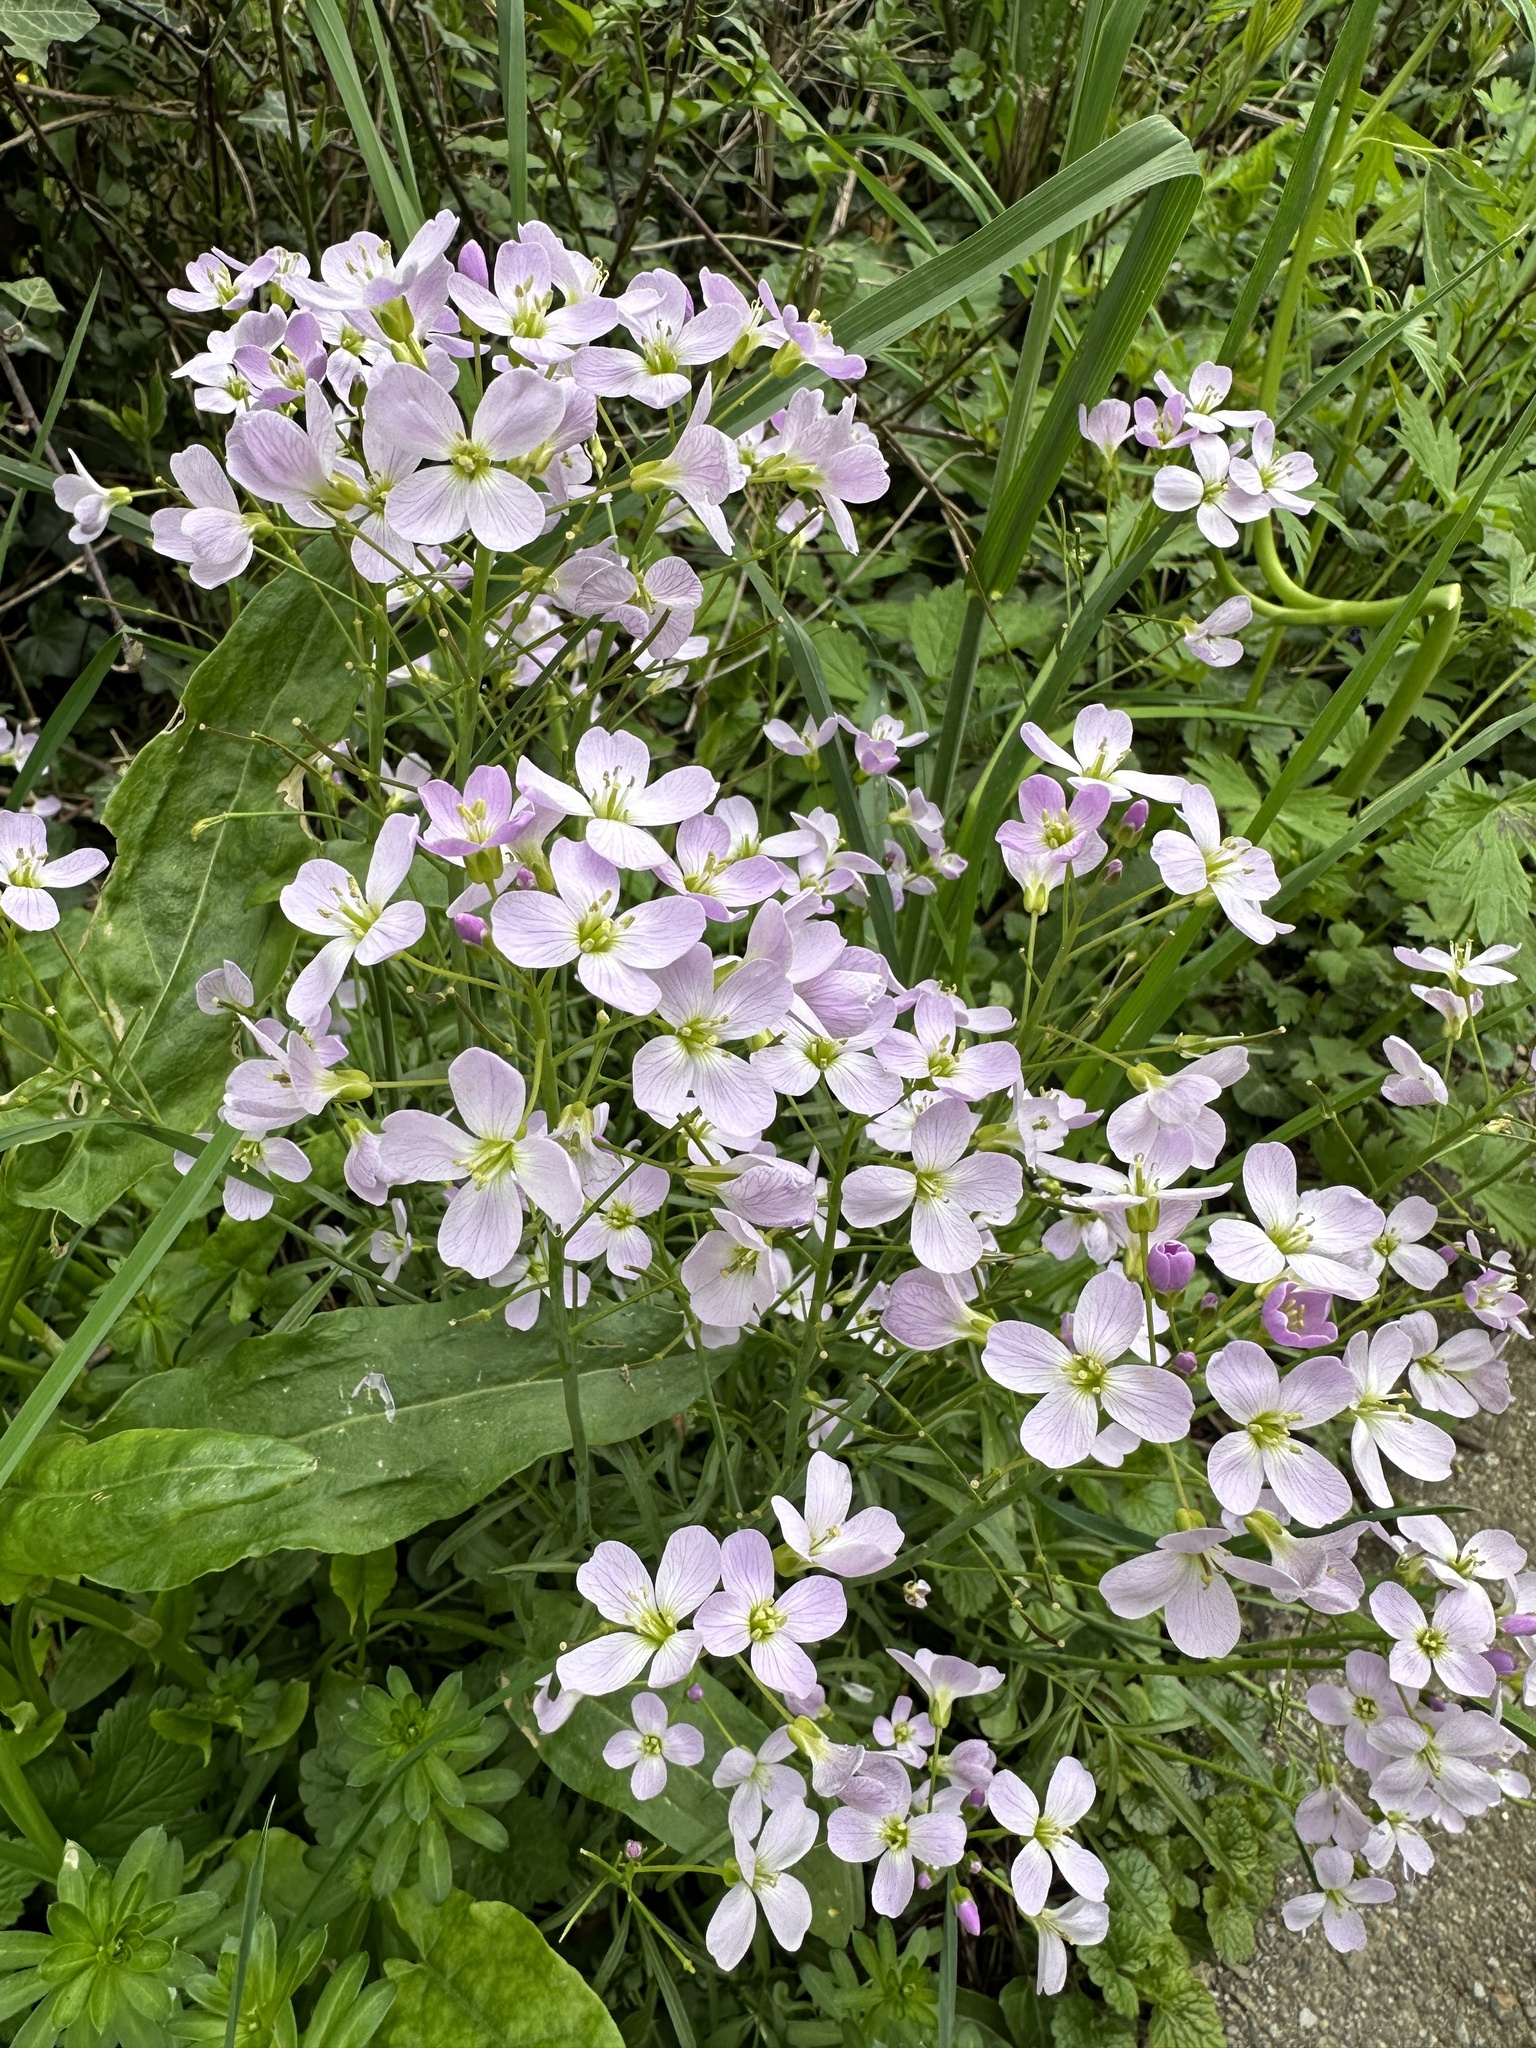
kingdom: Plantae
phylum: Tracheophyta
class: Magnoliopsida
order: Brassicales
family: Brassicaceae
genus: Cardamine
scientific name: Cardamine pratensis
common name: Cuckoo flower
